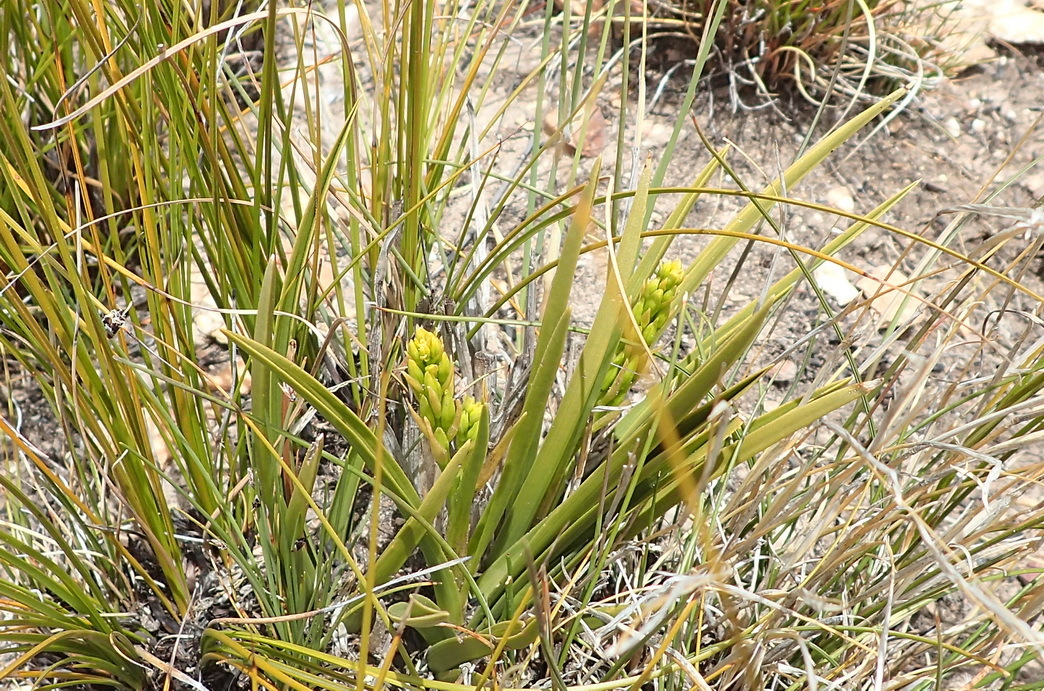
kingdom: Plantae
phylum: Tracheophyta
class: Liliopsida
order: Asparagales
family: Orchidaceae
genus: Eulophia
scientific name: Eulophia tristis
